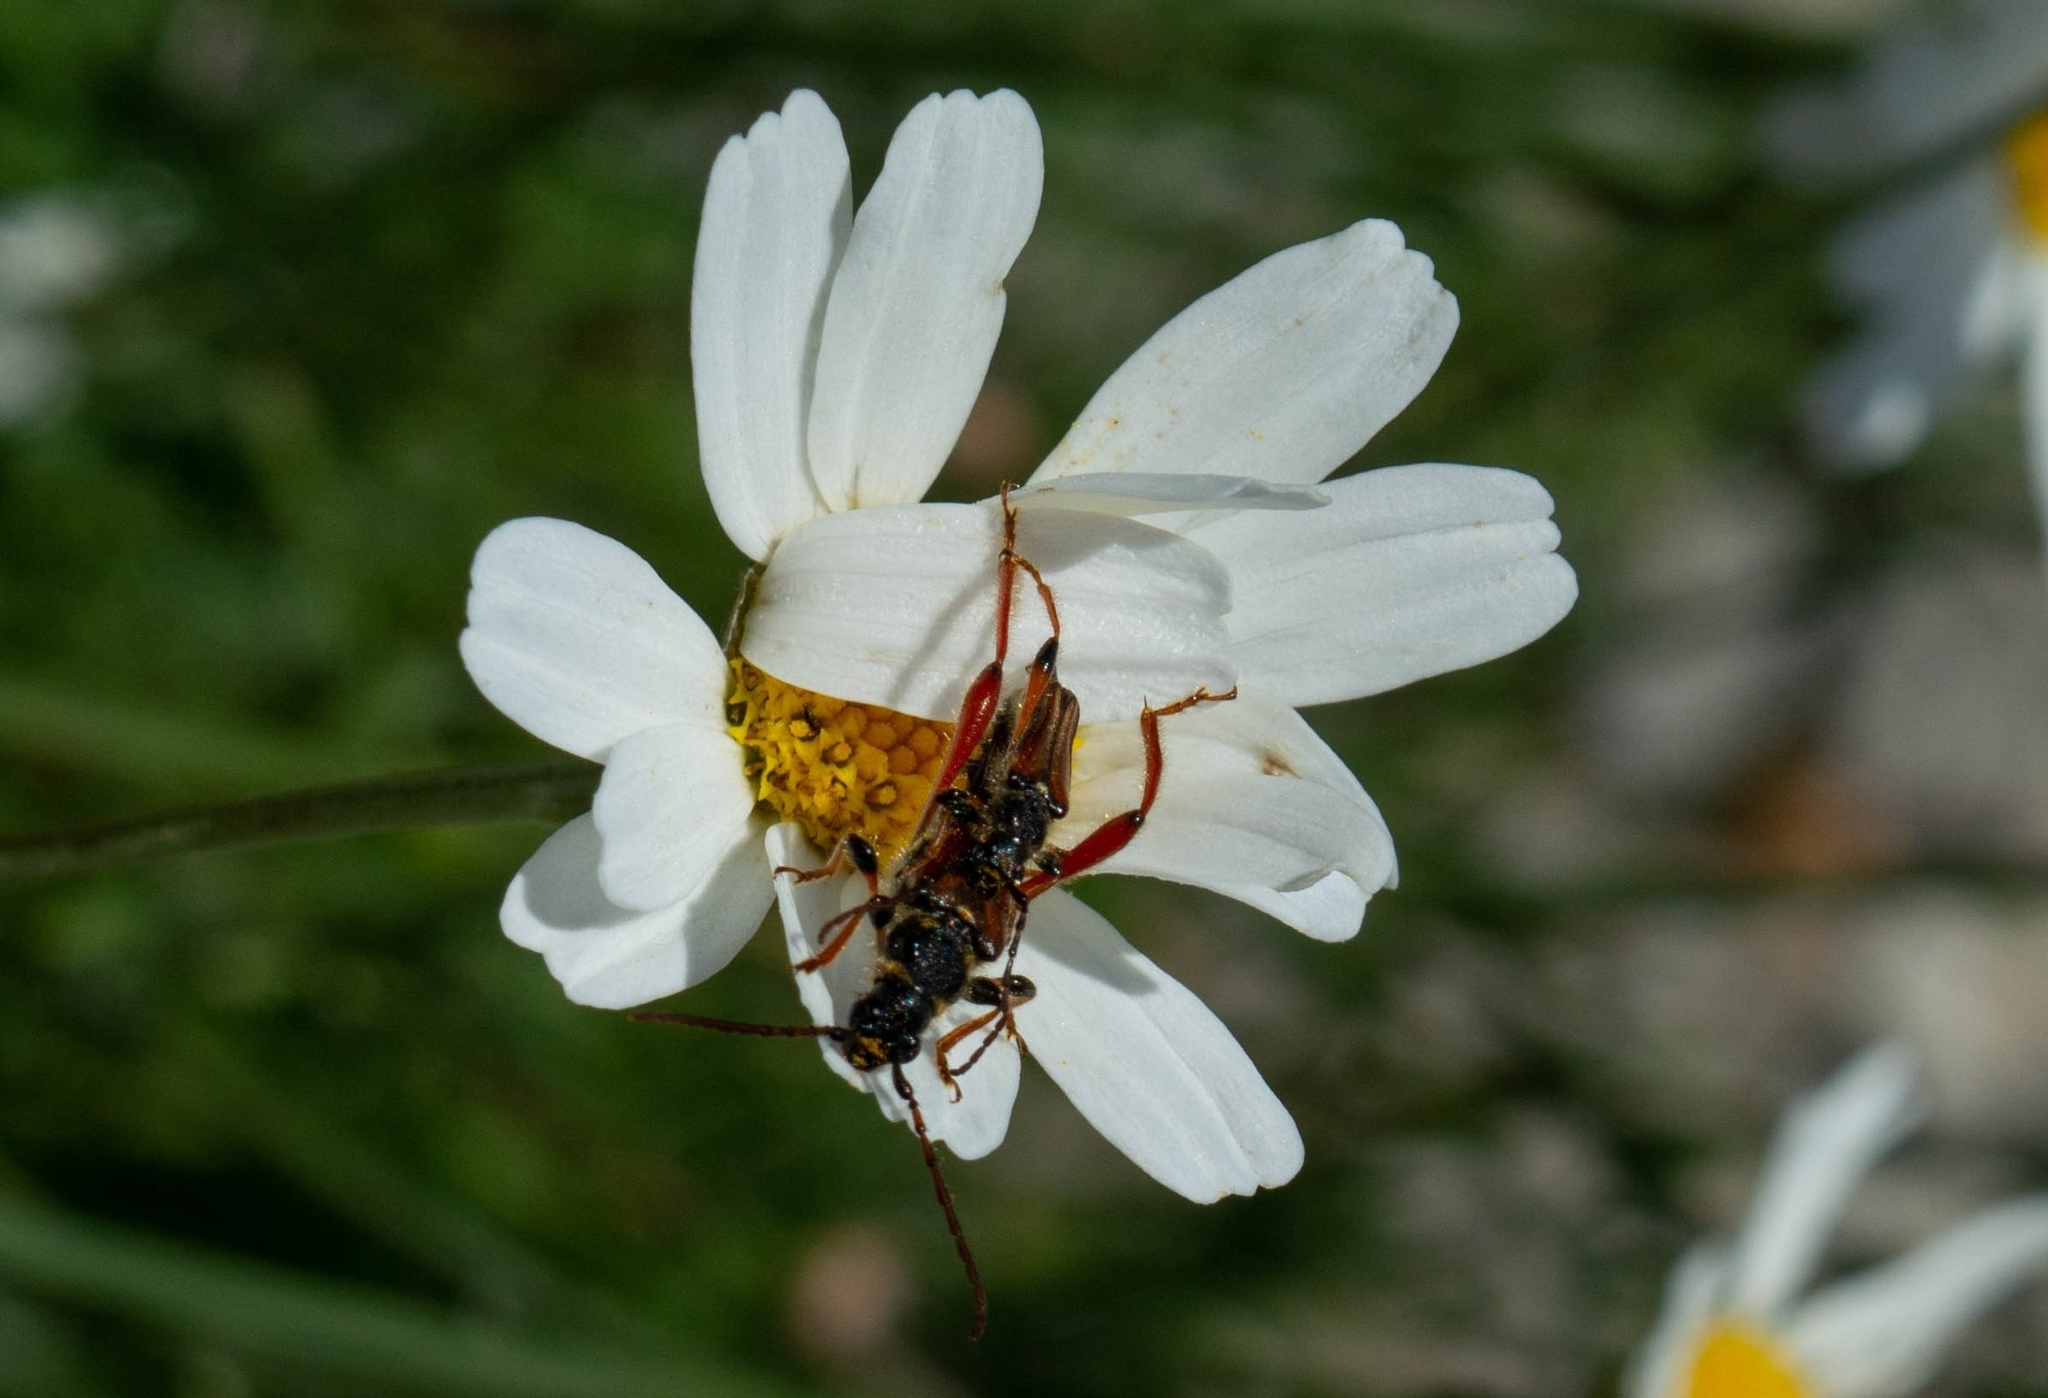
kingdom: Animalia
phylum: Arthropoda
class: Insecta
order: Coleoptera
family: Cerambycidae
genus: Stenopterus
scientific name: Stenopterus rufus
